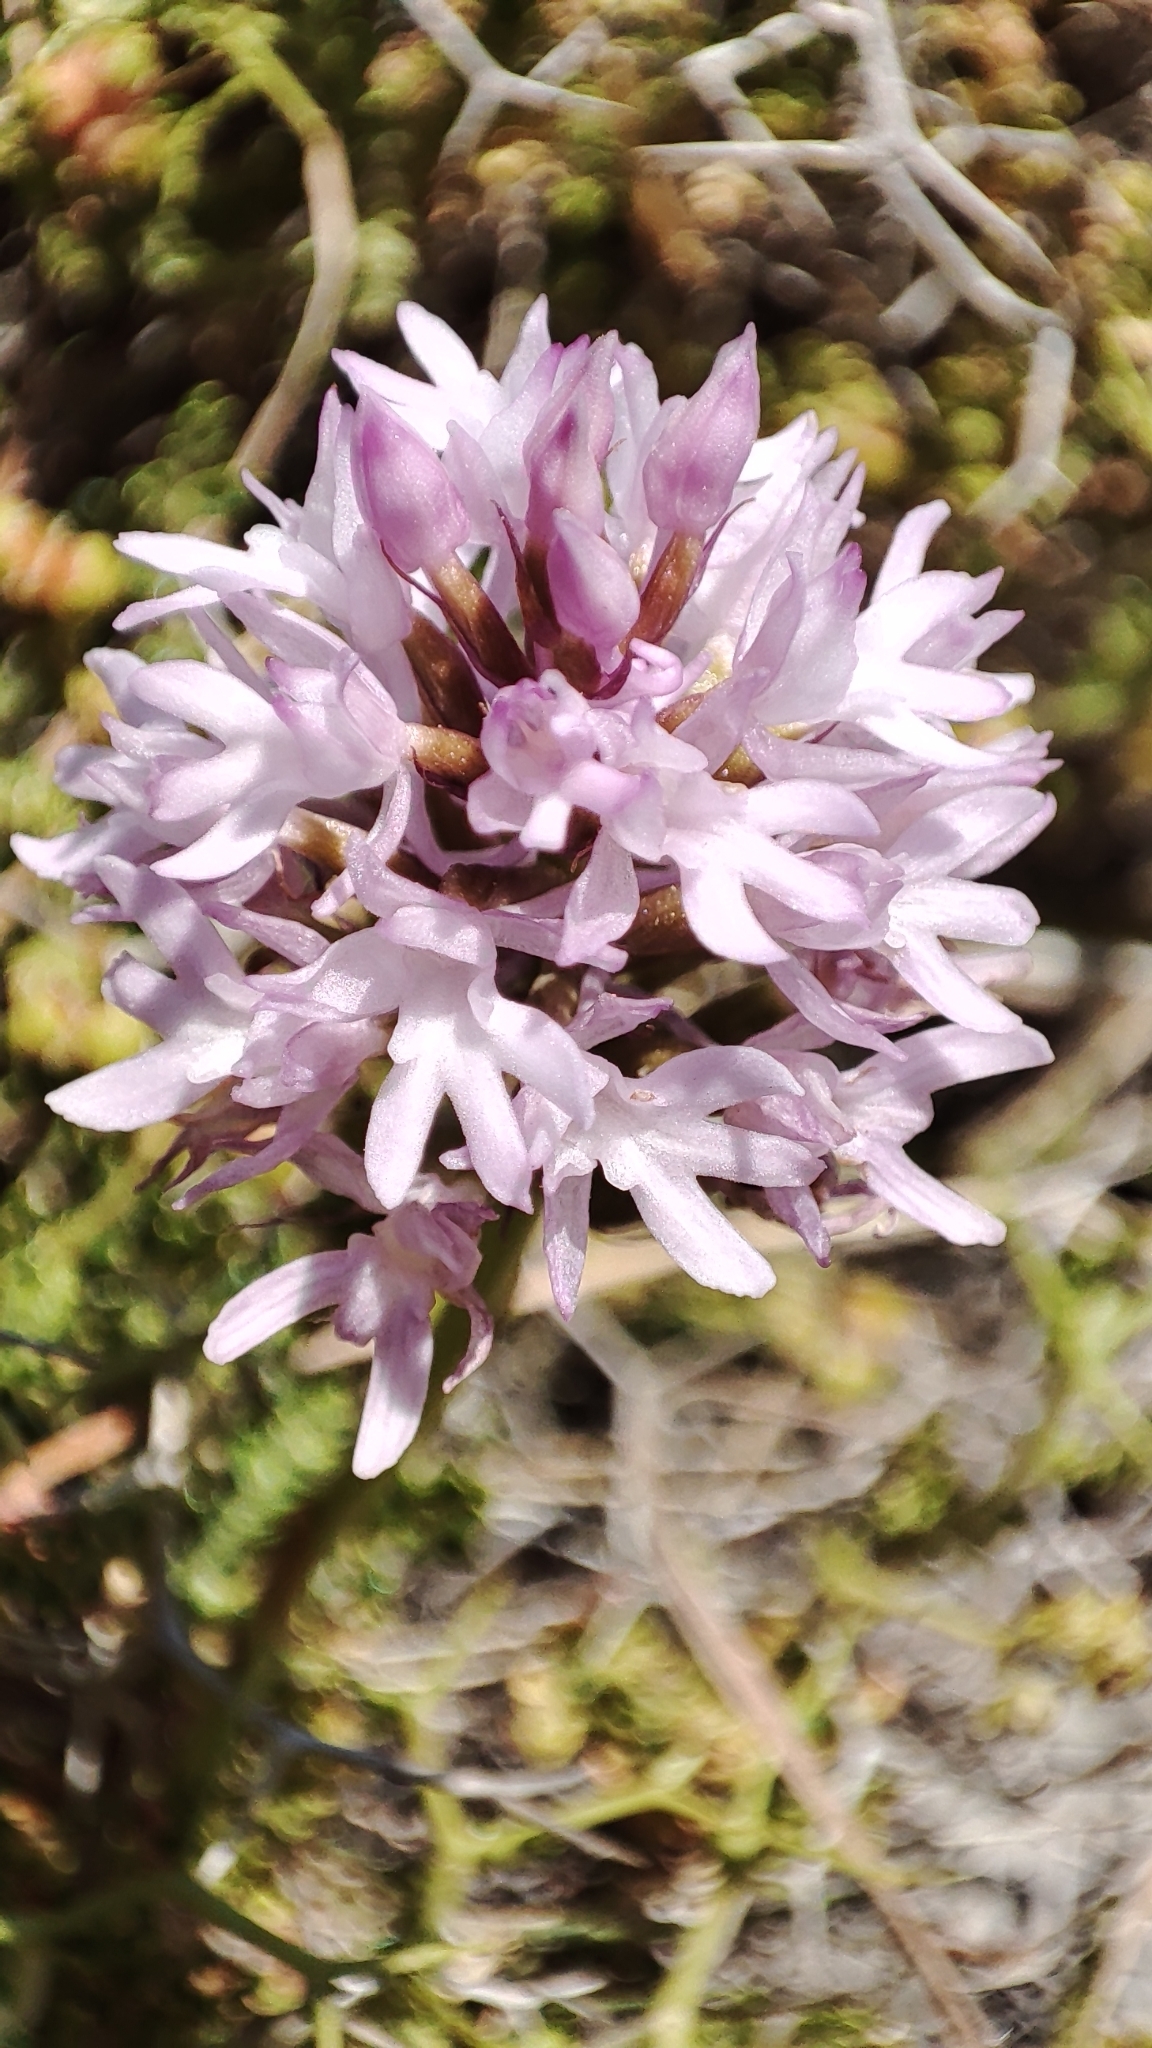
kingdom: Plantae
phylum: Tracheophyta
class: Liliopsida
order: Asparagales
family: Orchidaceae
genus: Anacamptis
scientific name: Anacamptis pyramidalis
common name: Pyramidal orchid
